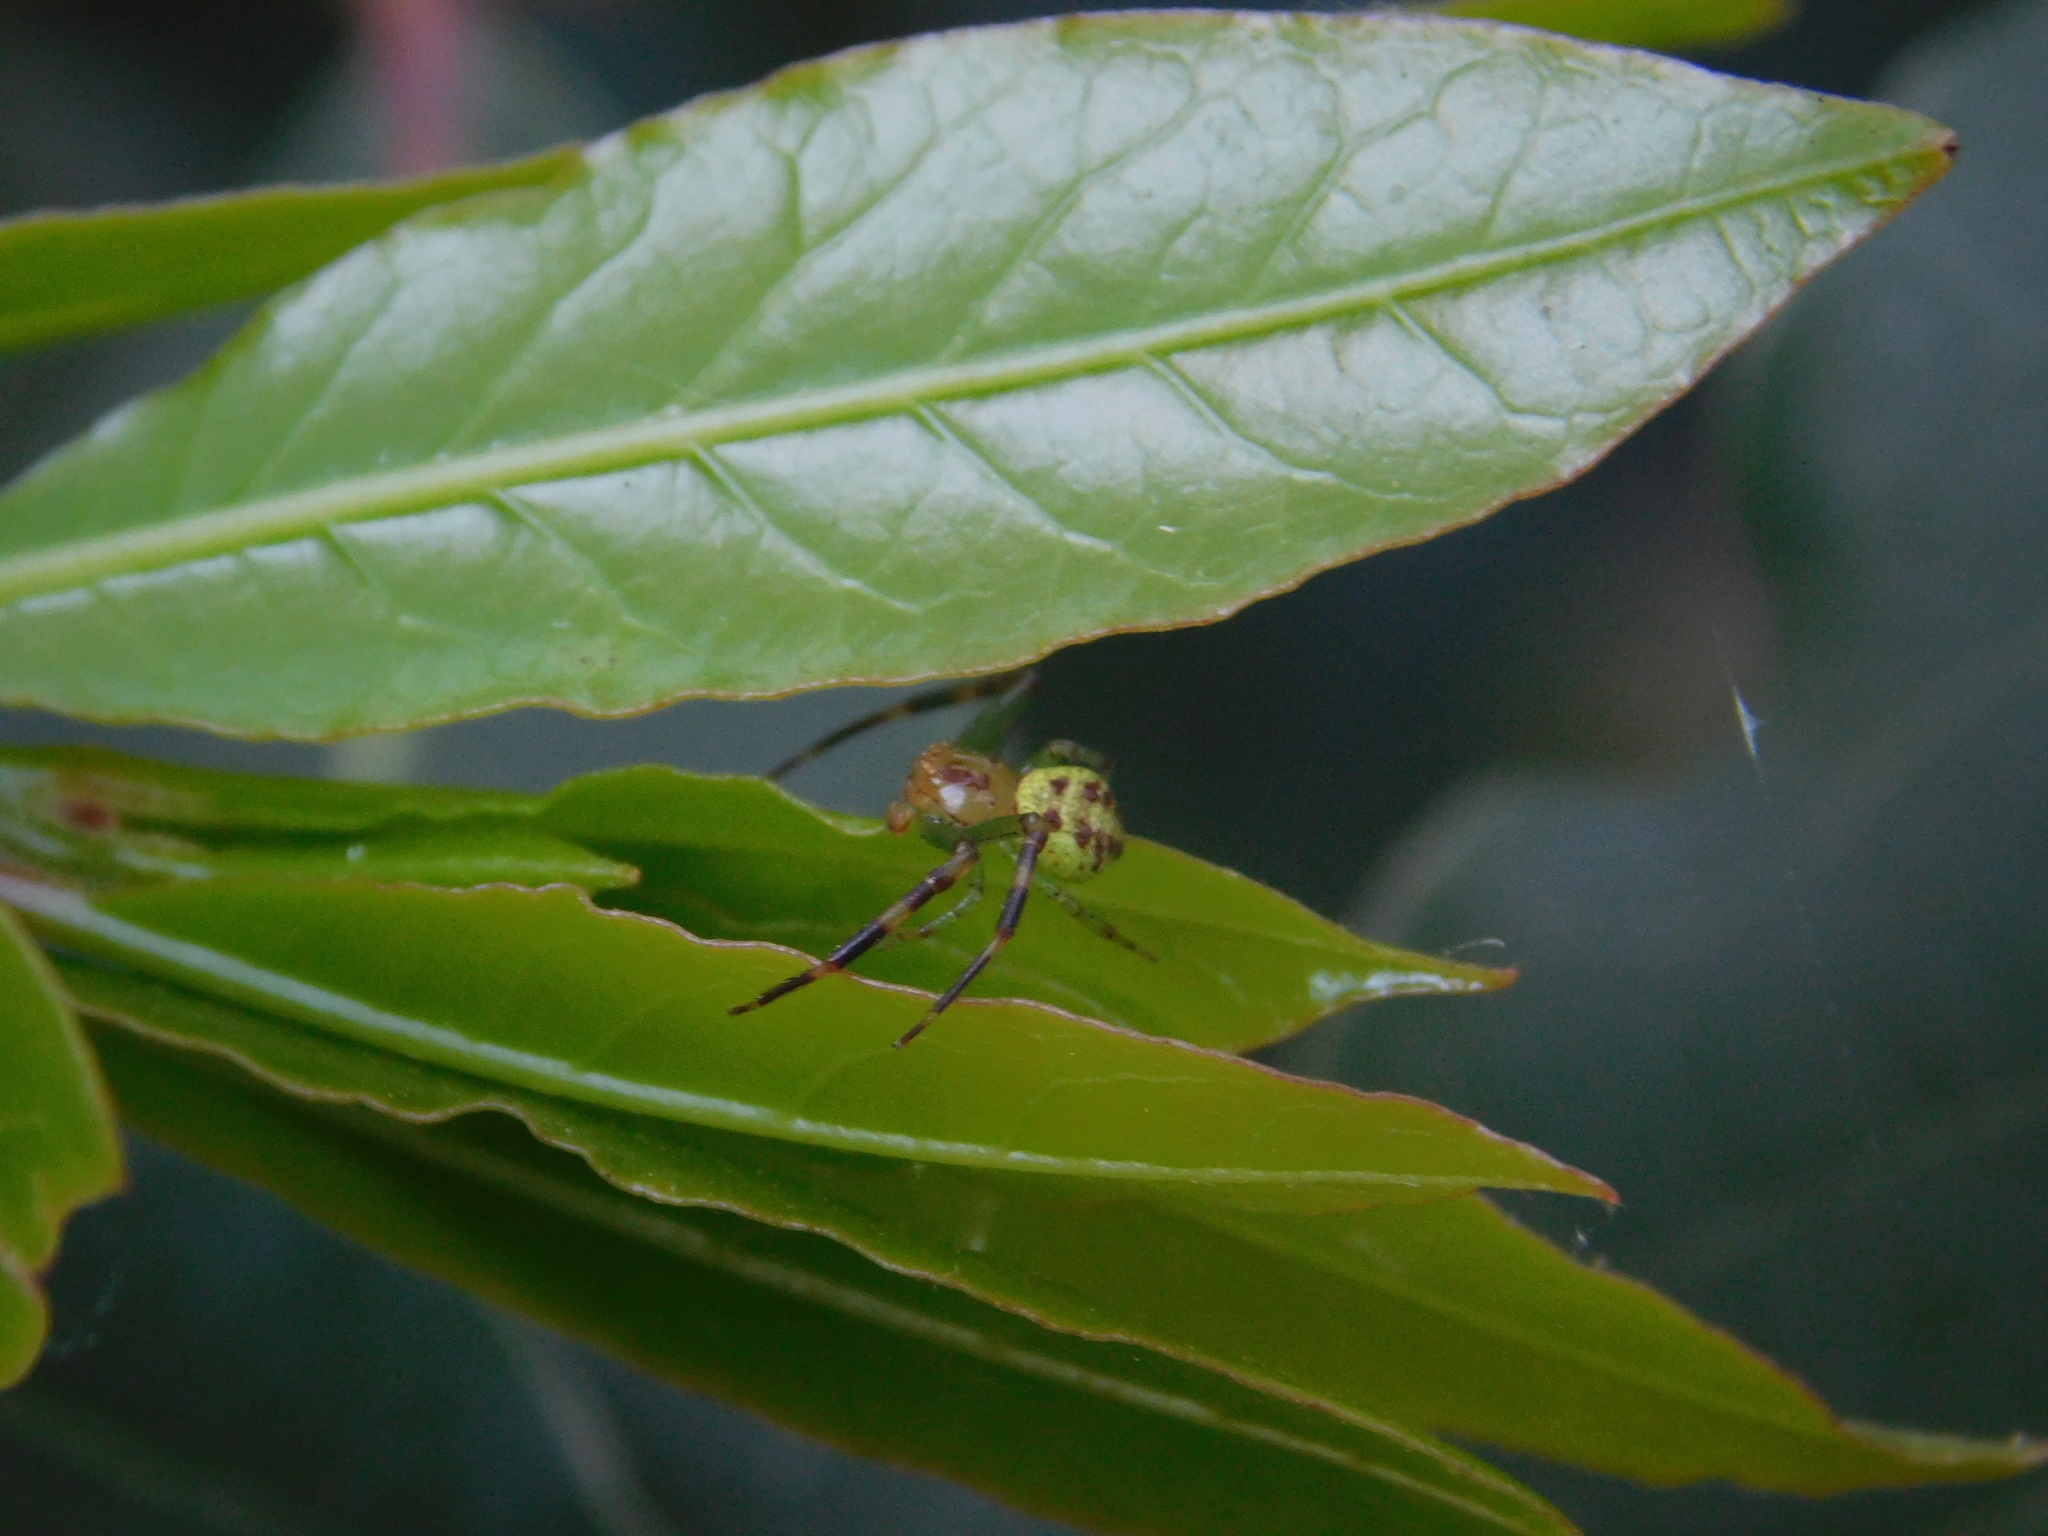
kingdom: Animalia
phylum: Arthropoda
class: Arachnida
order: Araneae
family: Thomisidae
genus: Misumenops
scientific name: Misumenops
